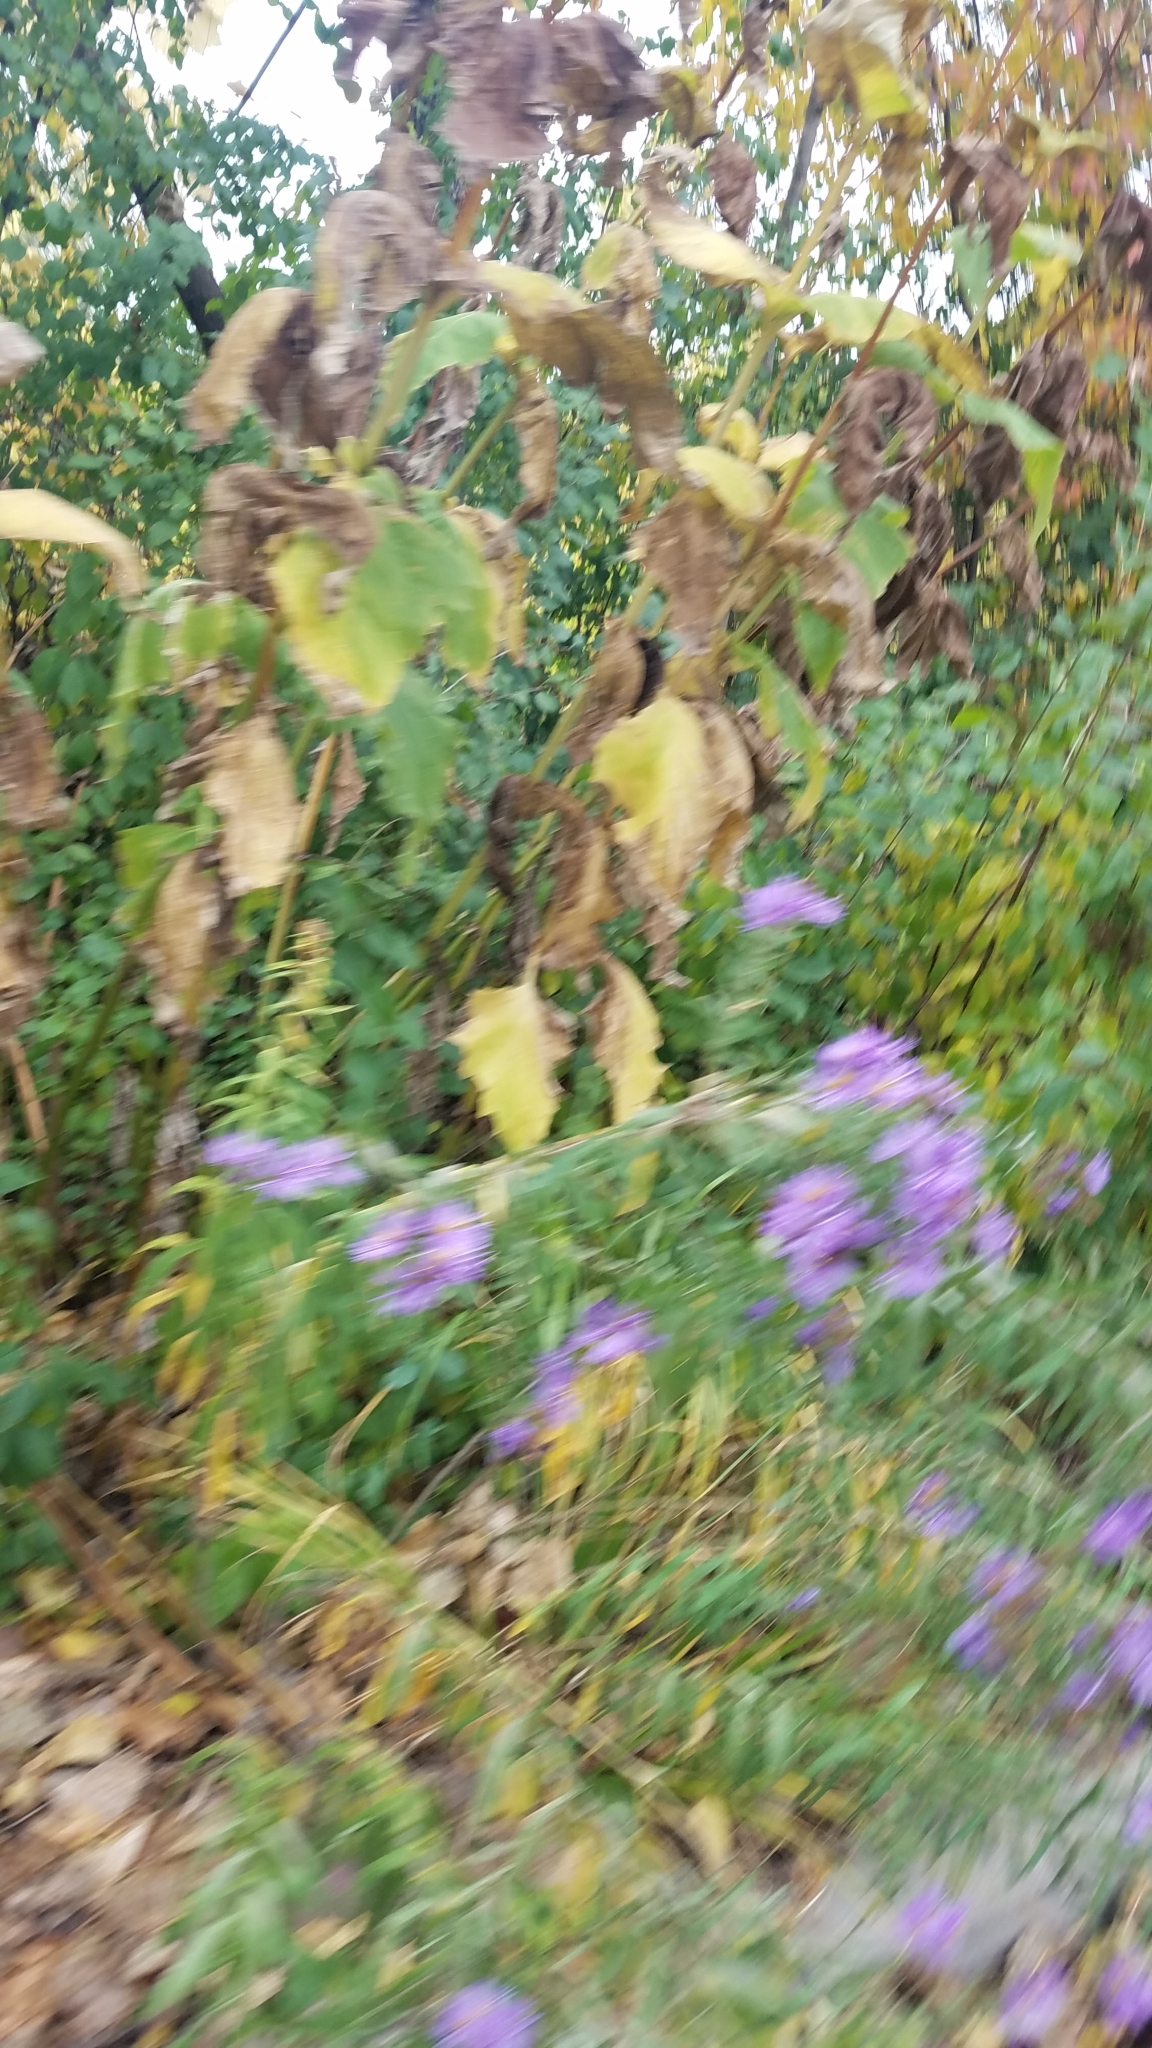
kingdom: Plantae
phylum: Tracheophyta
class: Magnoliopsida
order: Asterales
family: Asteraceae
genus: Symphyotrichum
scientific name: Symphyotrichum novae-angliae
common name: Michaelmas daisy
